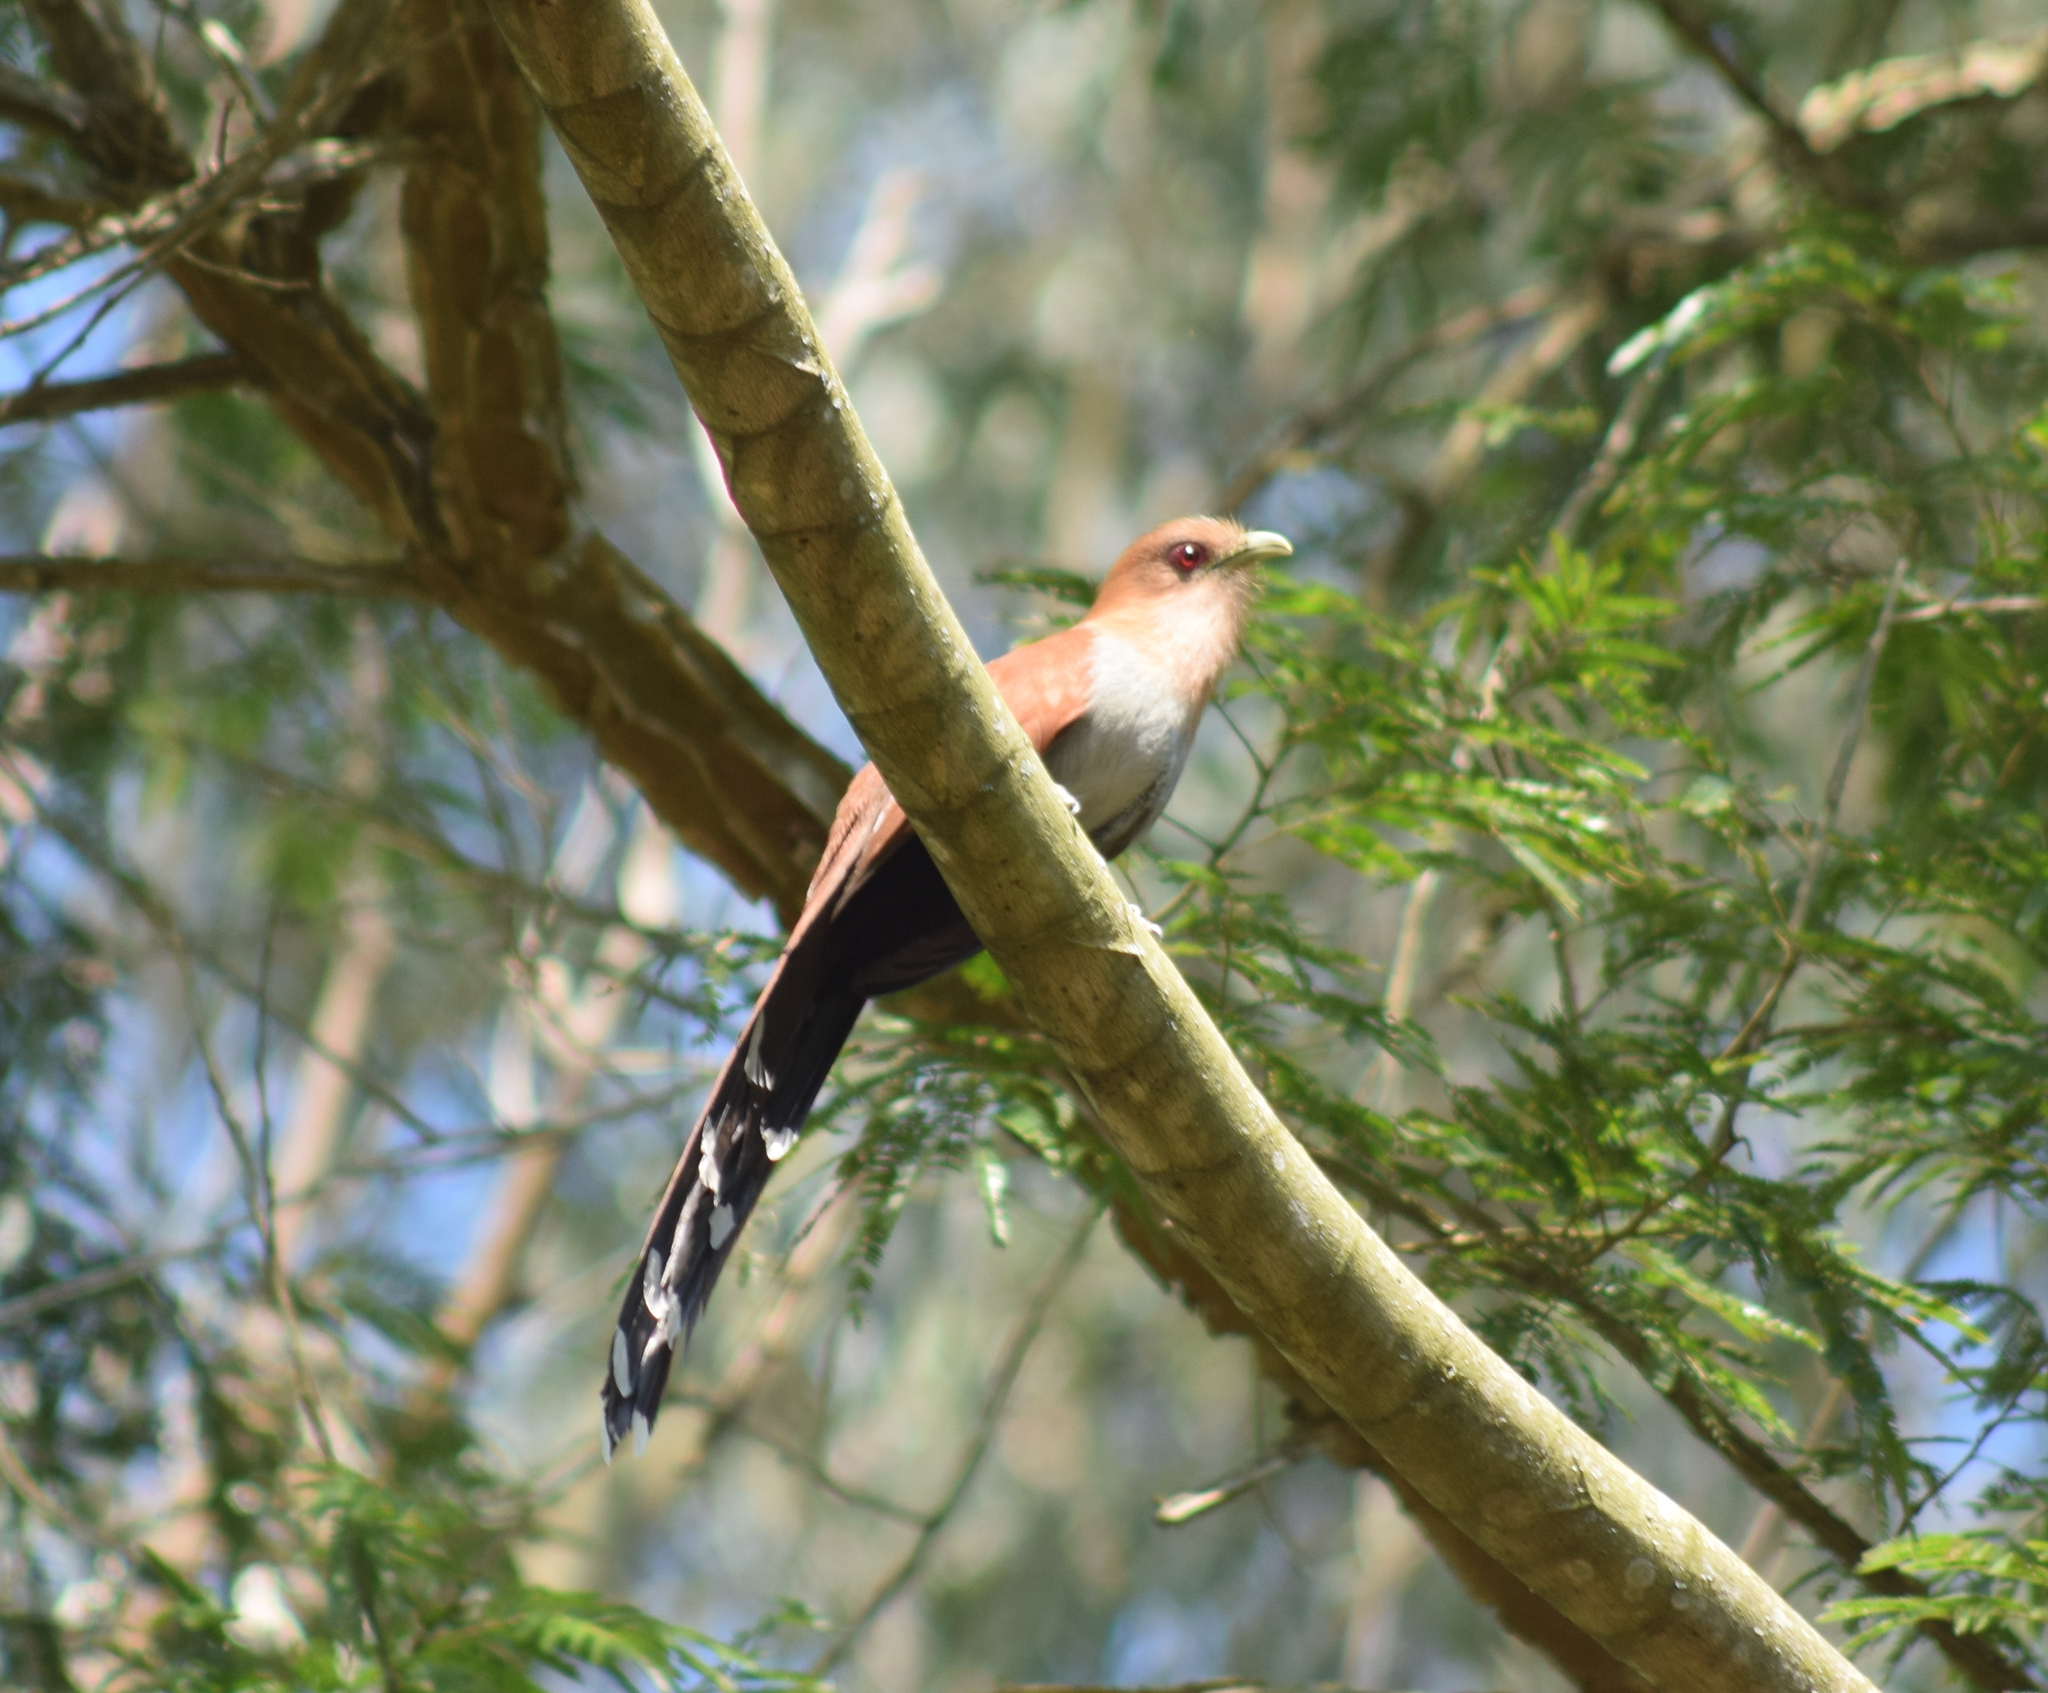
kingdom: Animalia
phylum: Chordata
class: Aves
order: Cuculiformes
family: Cuculidae
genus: Piaya
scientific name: Piaya cayana
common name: Squirrel cuckoo
